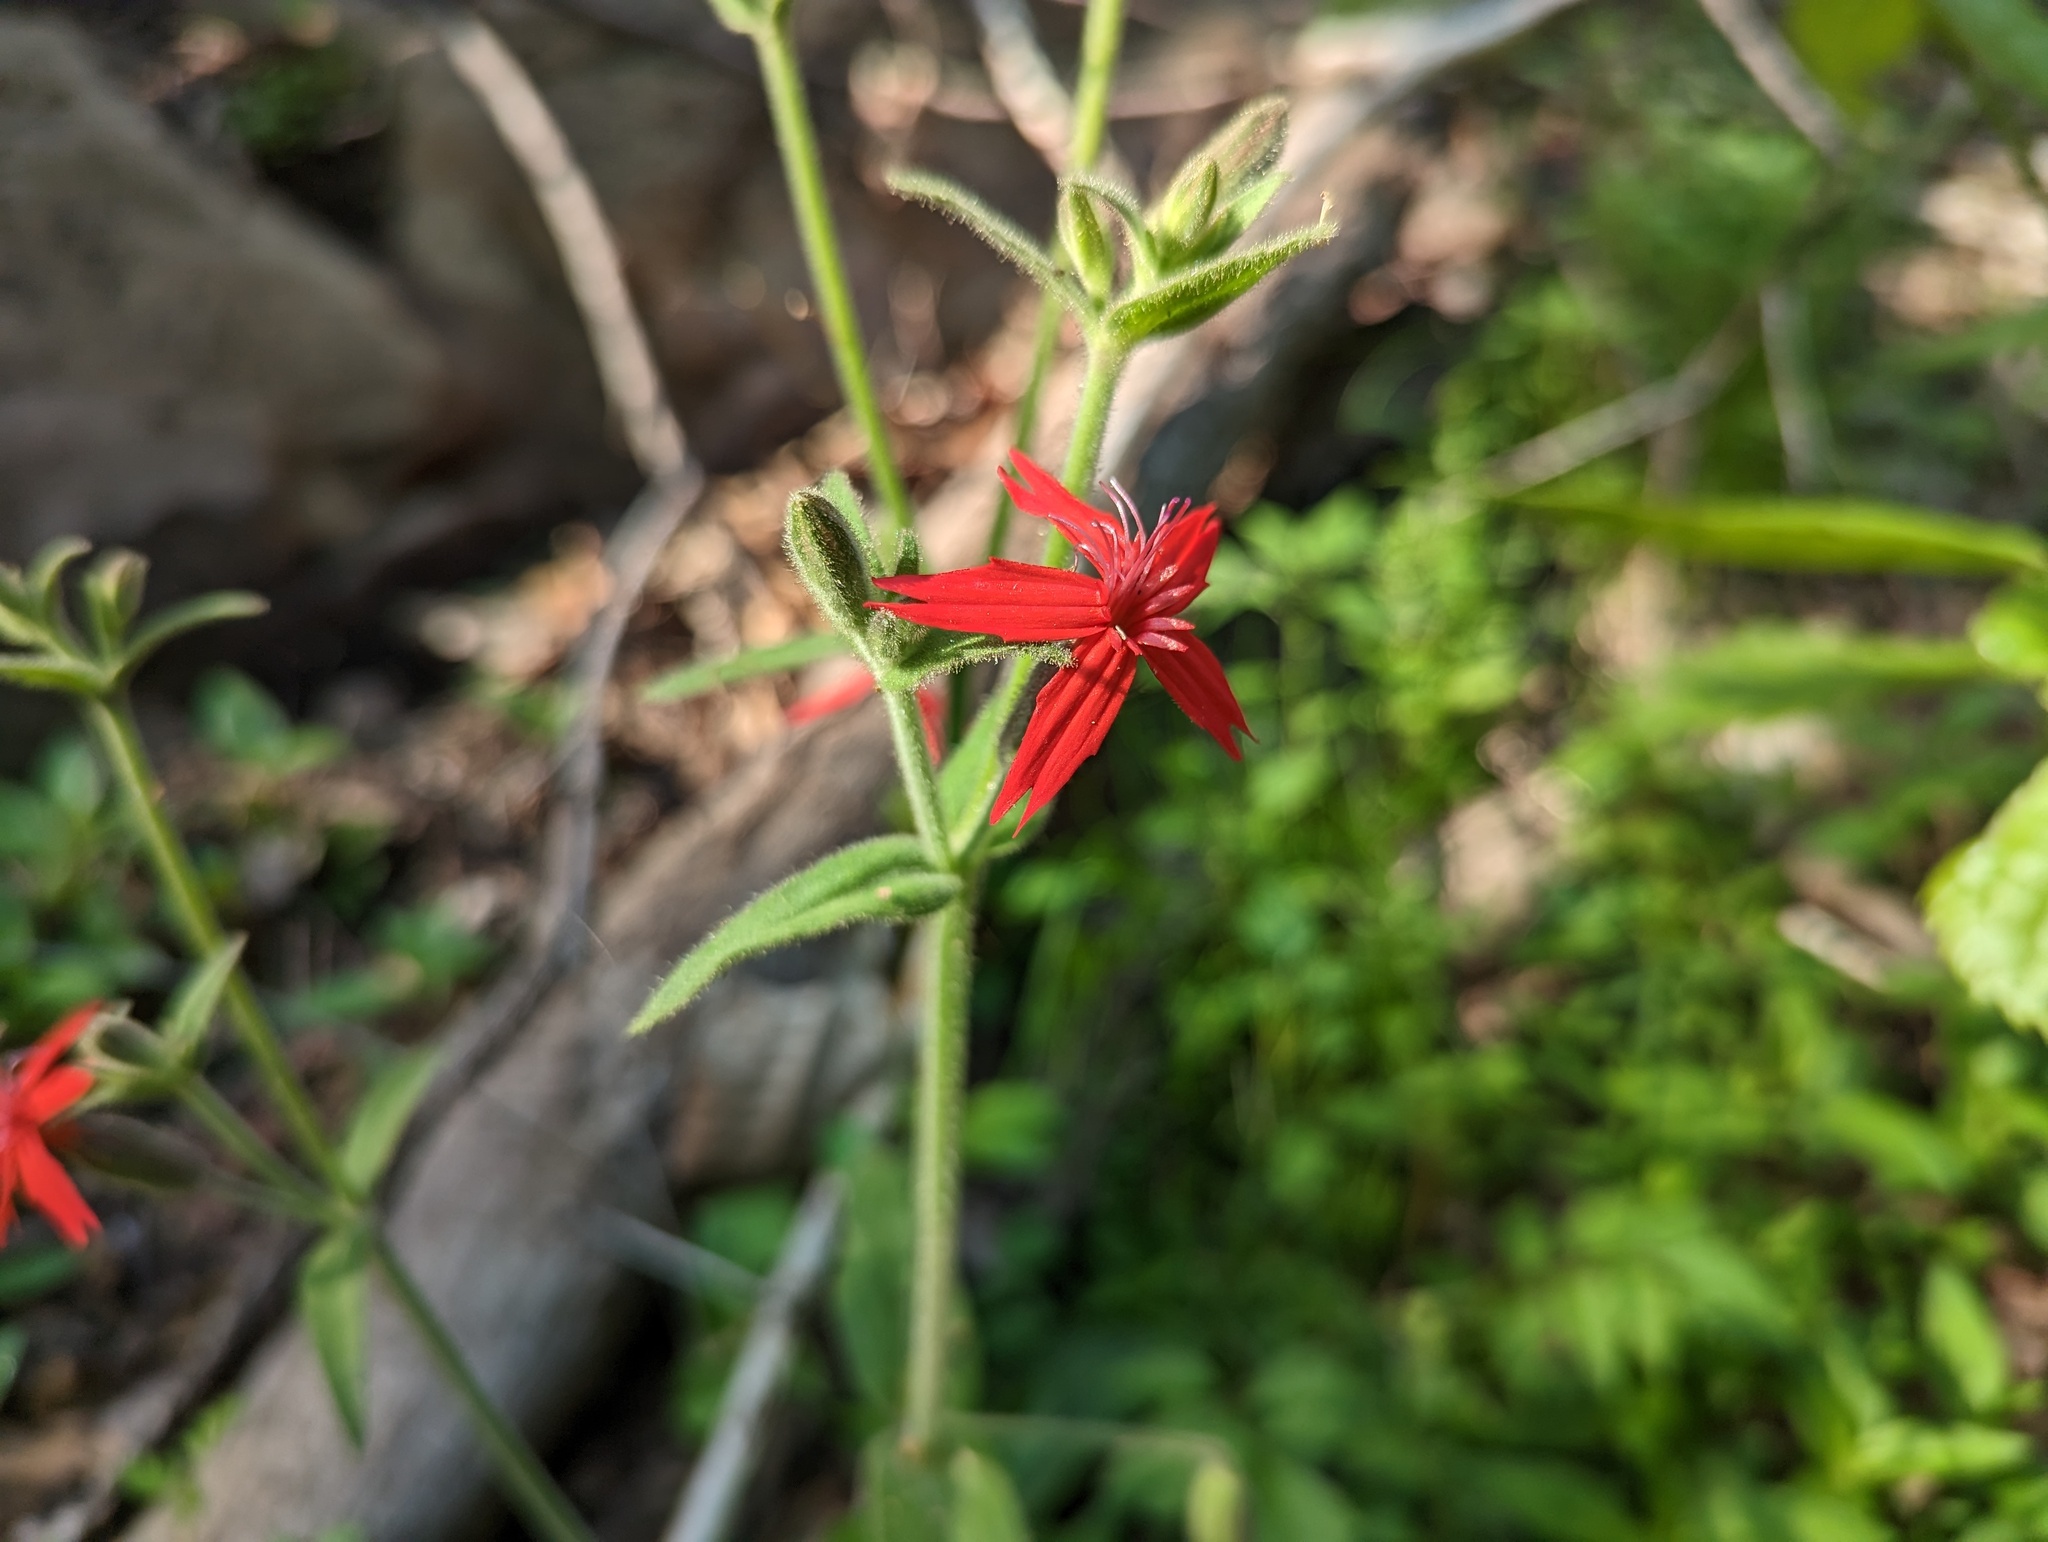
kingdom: Plantae
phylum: Tracheophyta
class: Magnoliopsida
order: Caryophyllales
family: Caryophyllaceae
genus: Silene
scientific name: Silene virginica
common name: Fire-pink
